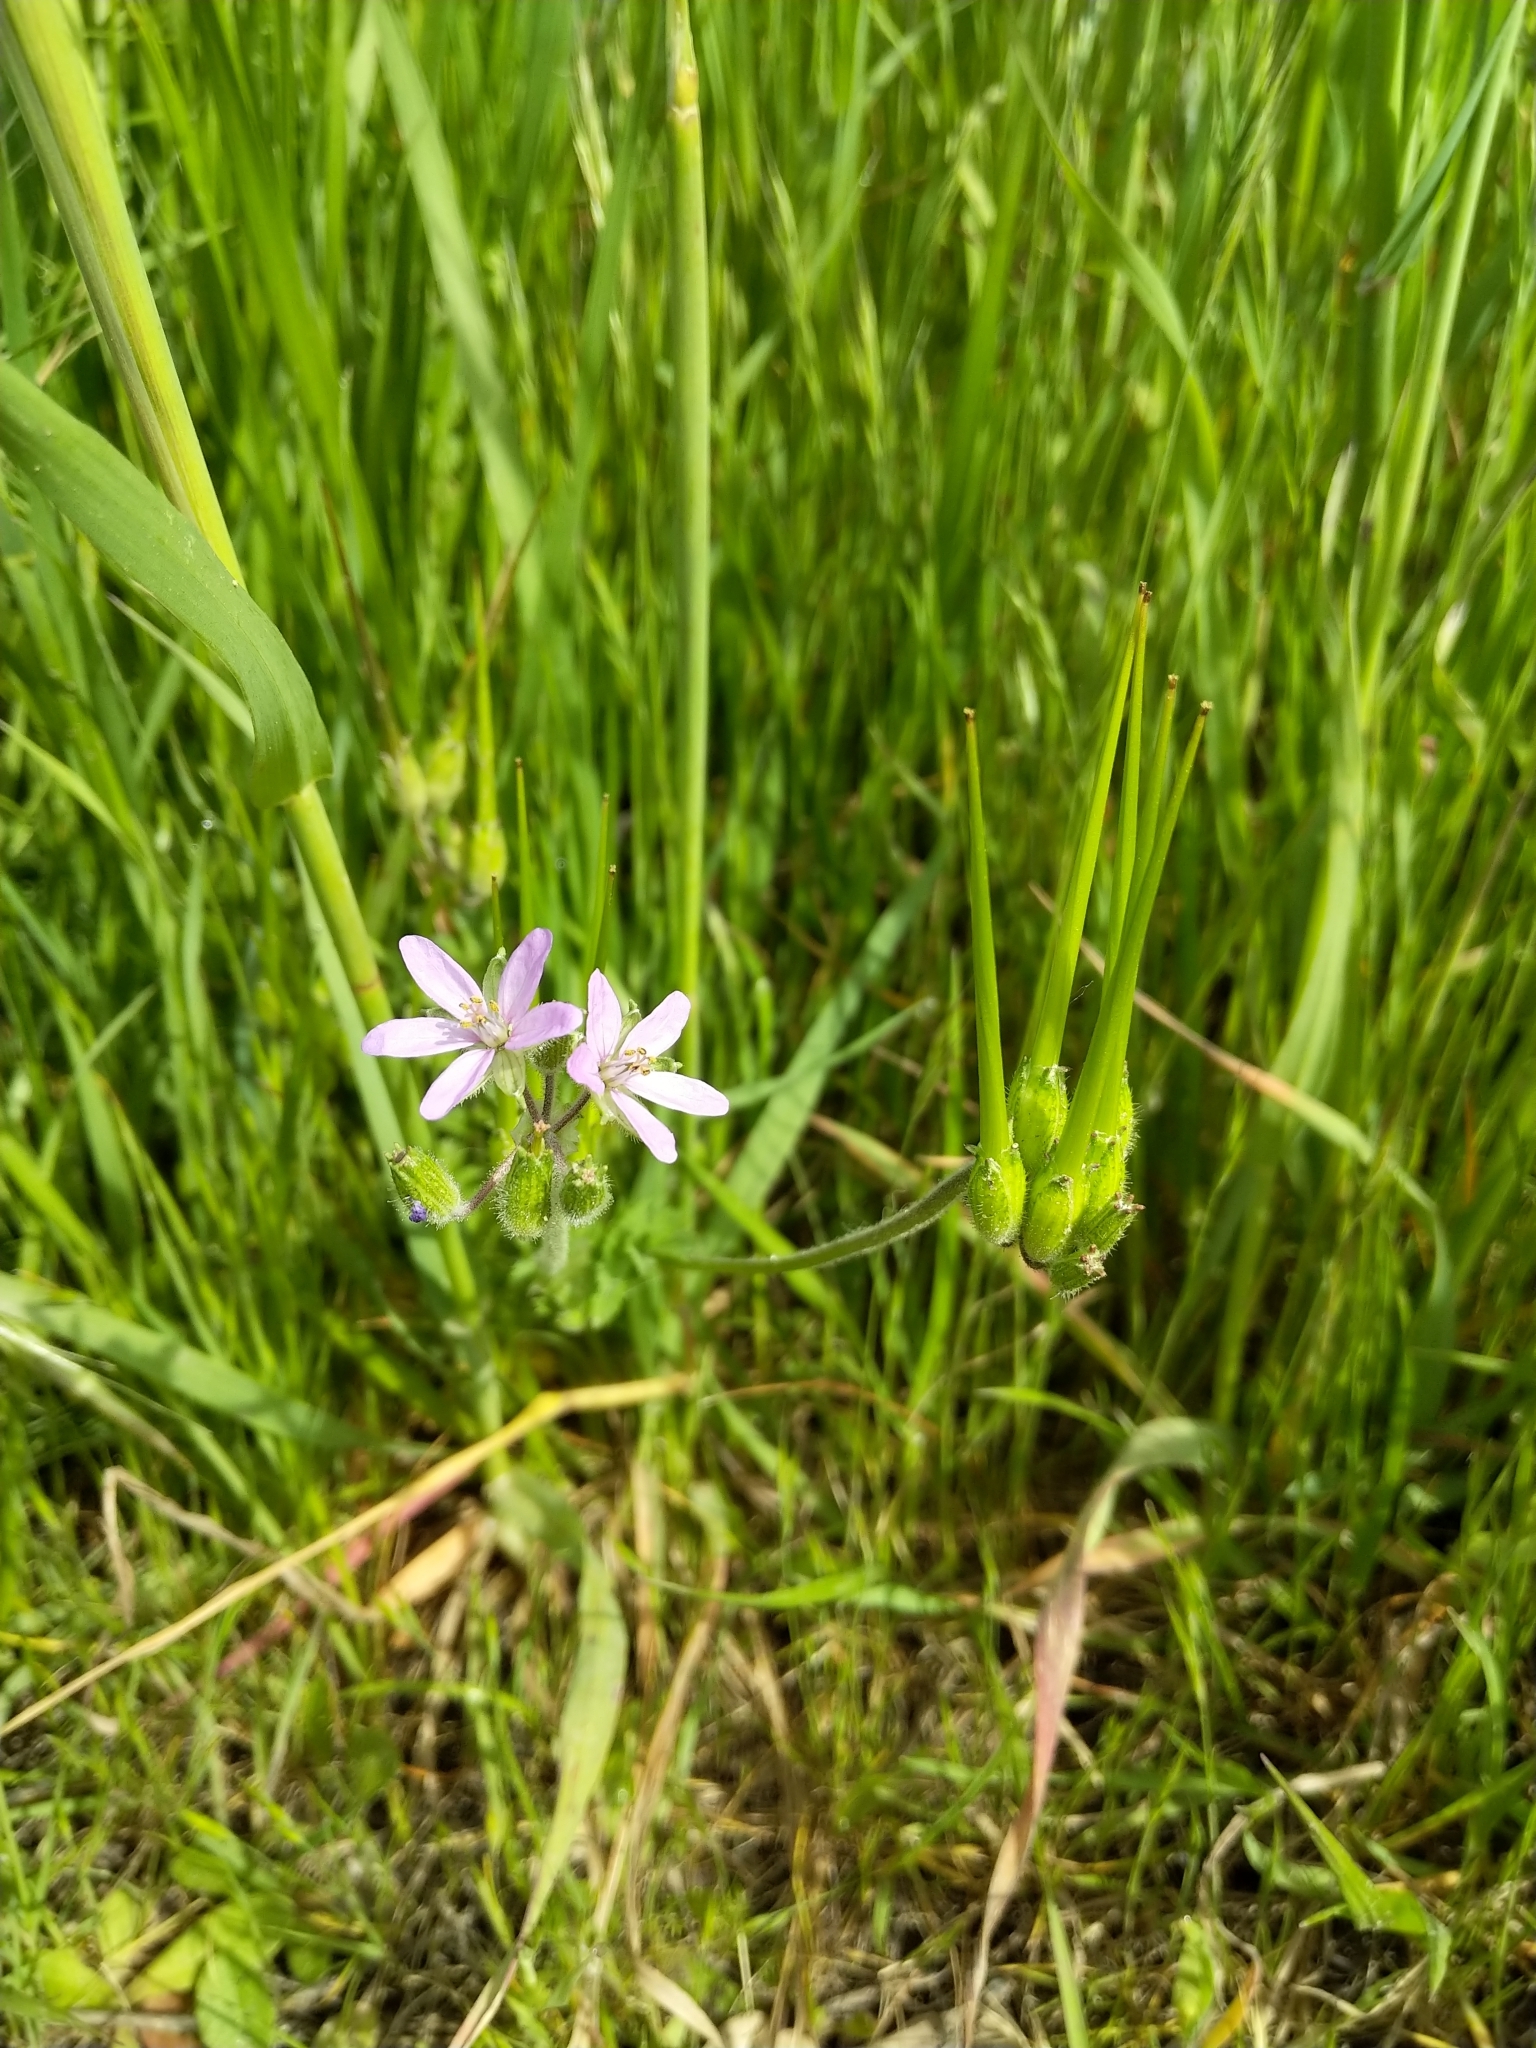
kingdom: Plantae
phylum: Tracheophyta
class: Magnoliopsida
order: Geraniales
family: Geraniaceae
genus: Erodium
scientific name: Erodium moschatum
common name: Musk stork's-bill
